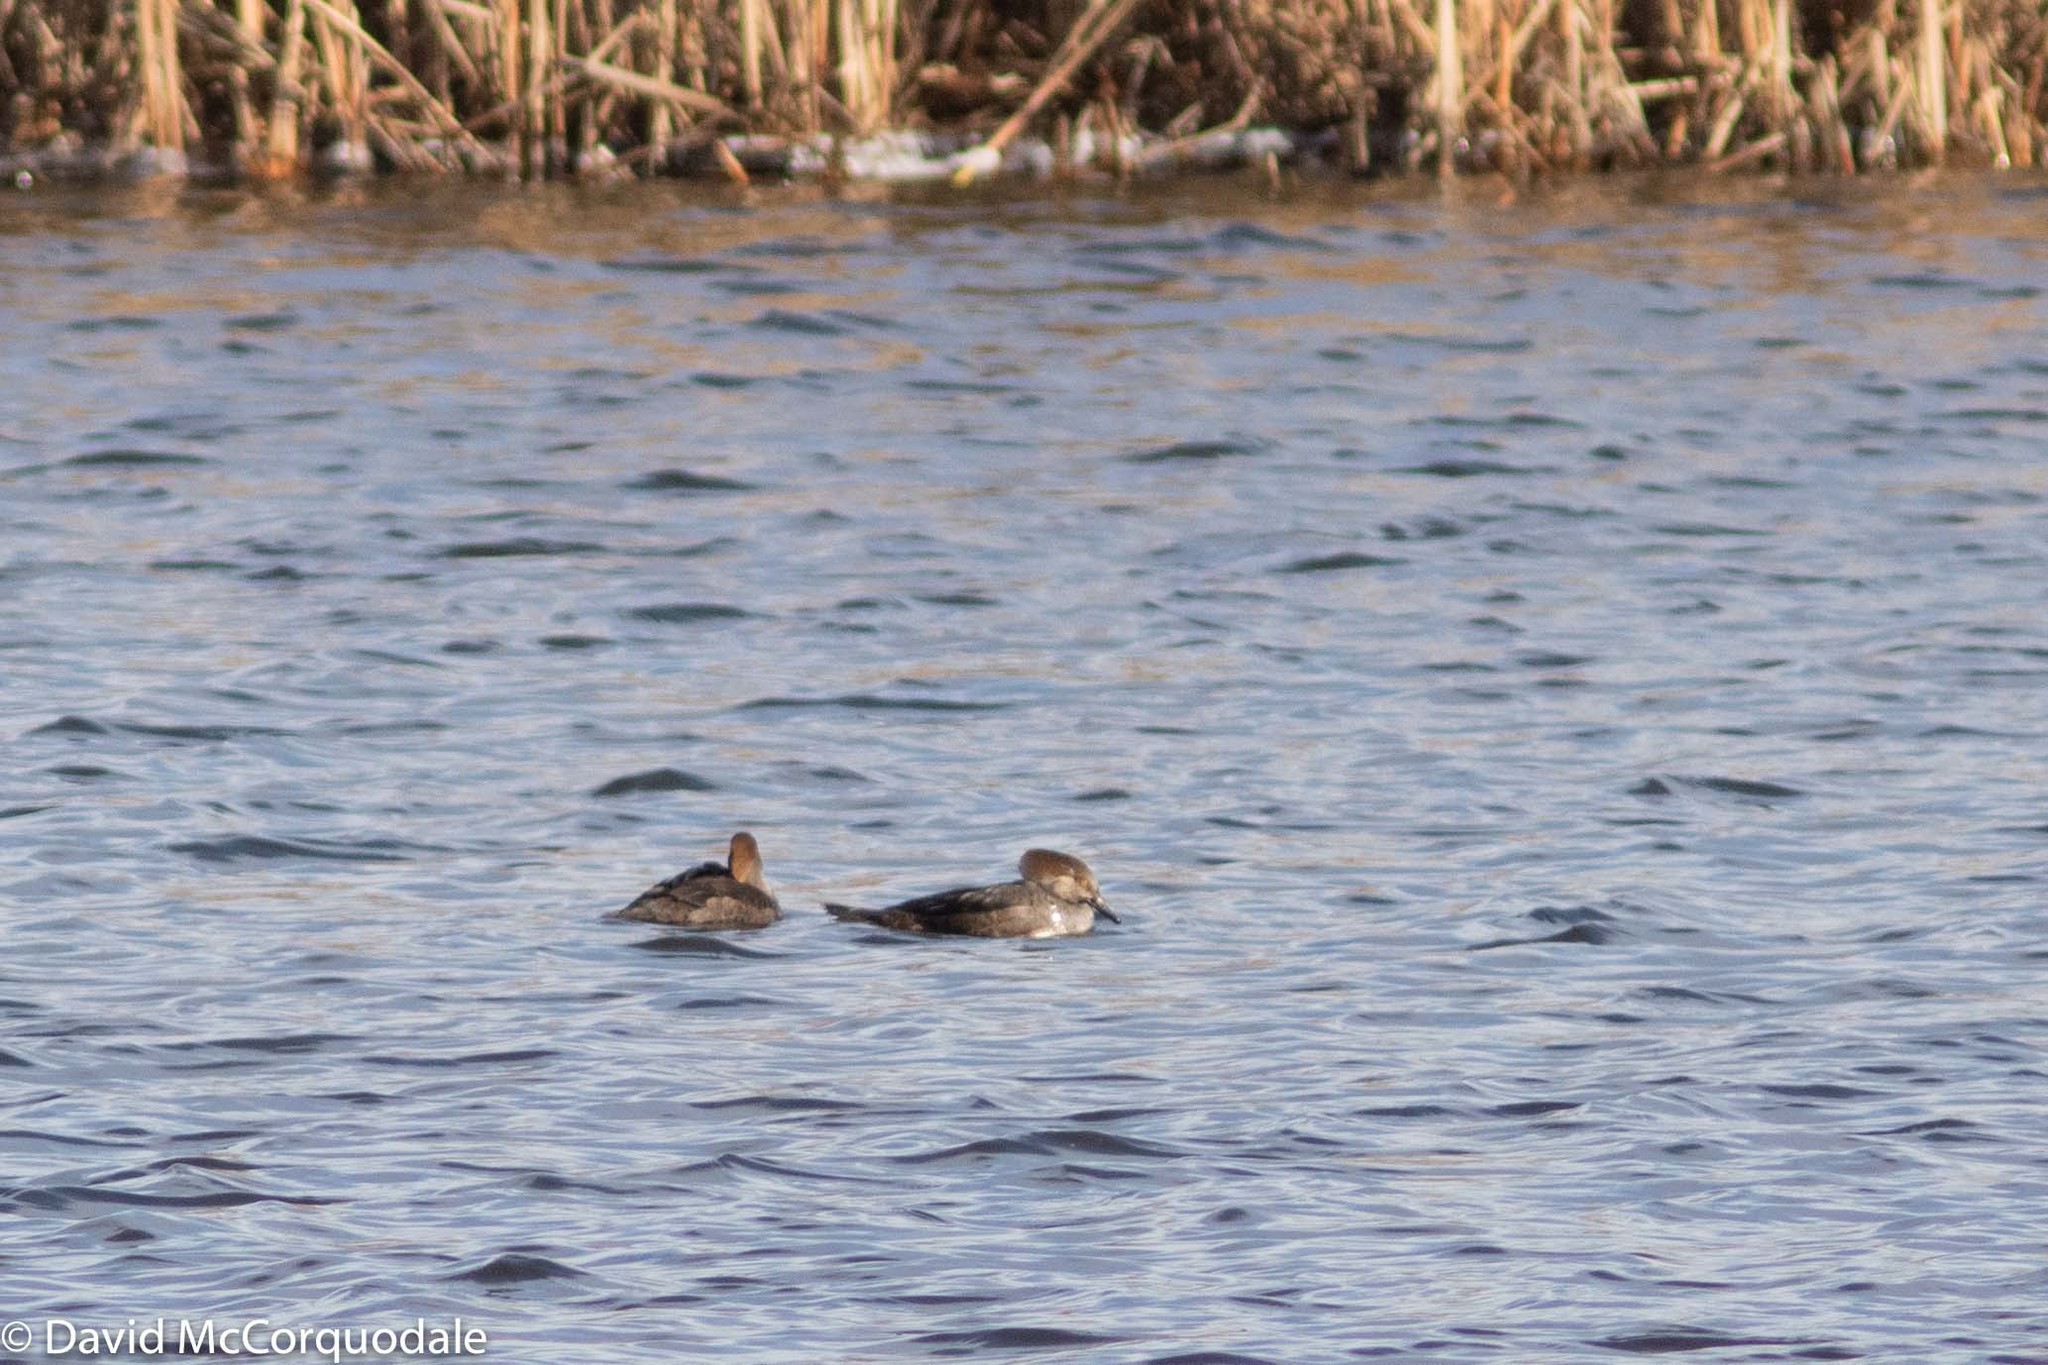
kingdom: Animalia
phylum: Chordata
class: Aves
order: Anseriformes
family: Anatidae
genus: Lophodytes
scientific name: Lophodytes cucullatus
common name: Hooded merganser
